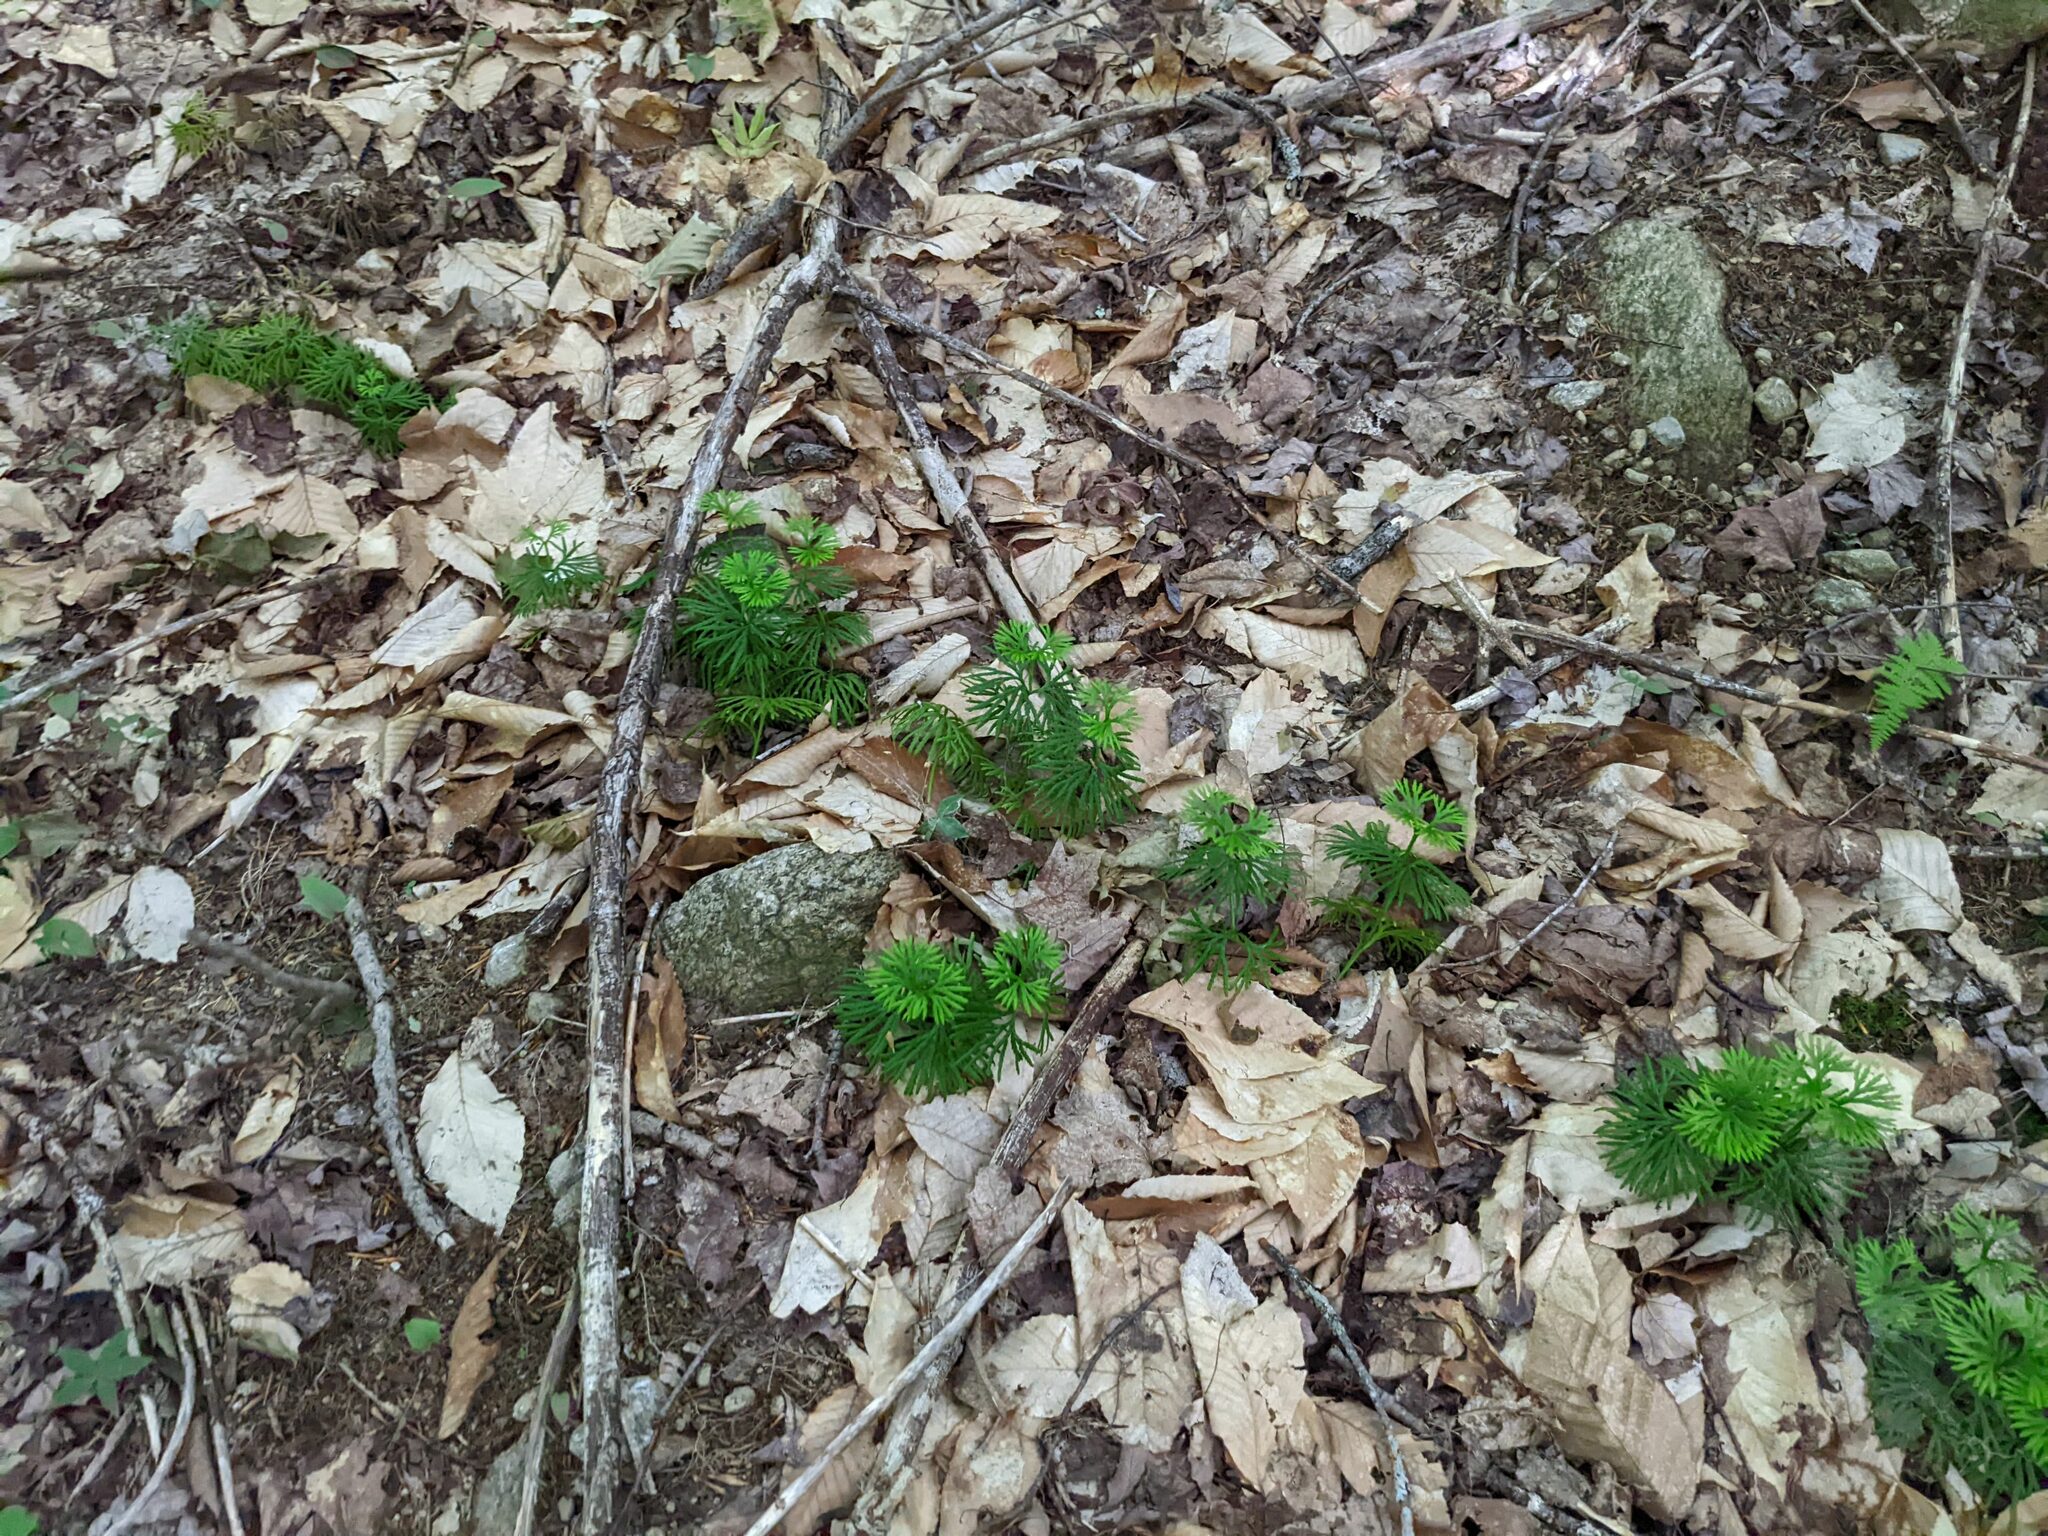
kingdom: Plantae
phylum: Tracheophyta
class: Lycopodiopsida
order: Lycopodiales
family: Lycopodiaceae
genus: Diphasiastrum
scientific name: Diphasiastrum digitatum
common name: Southern running-pine
